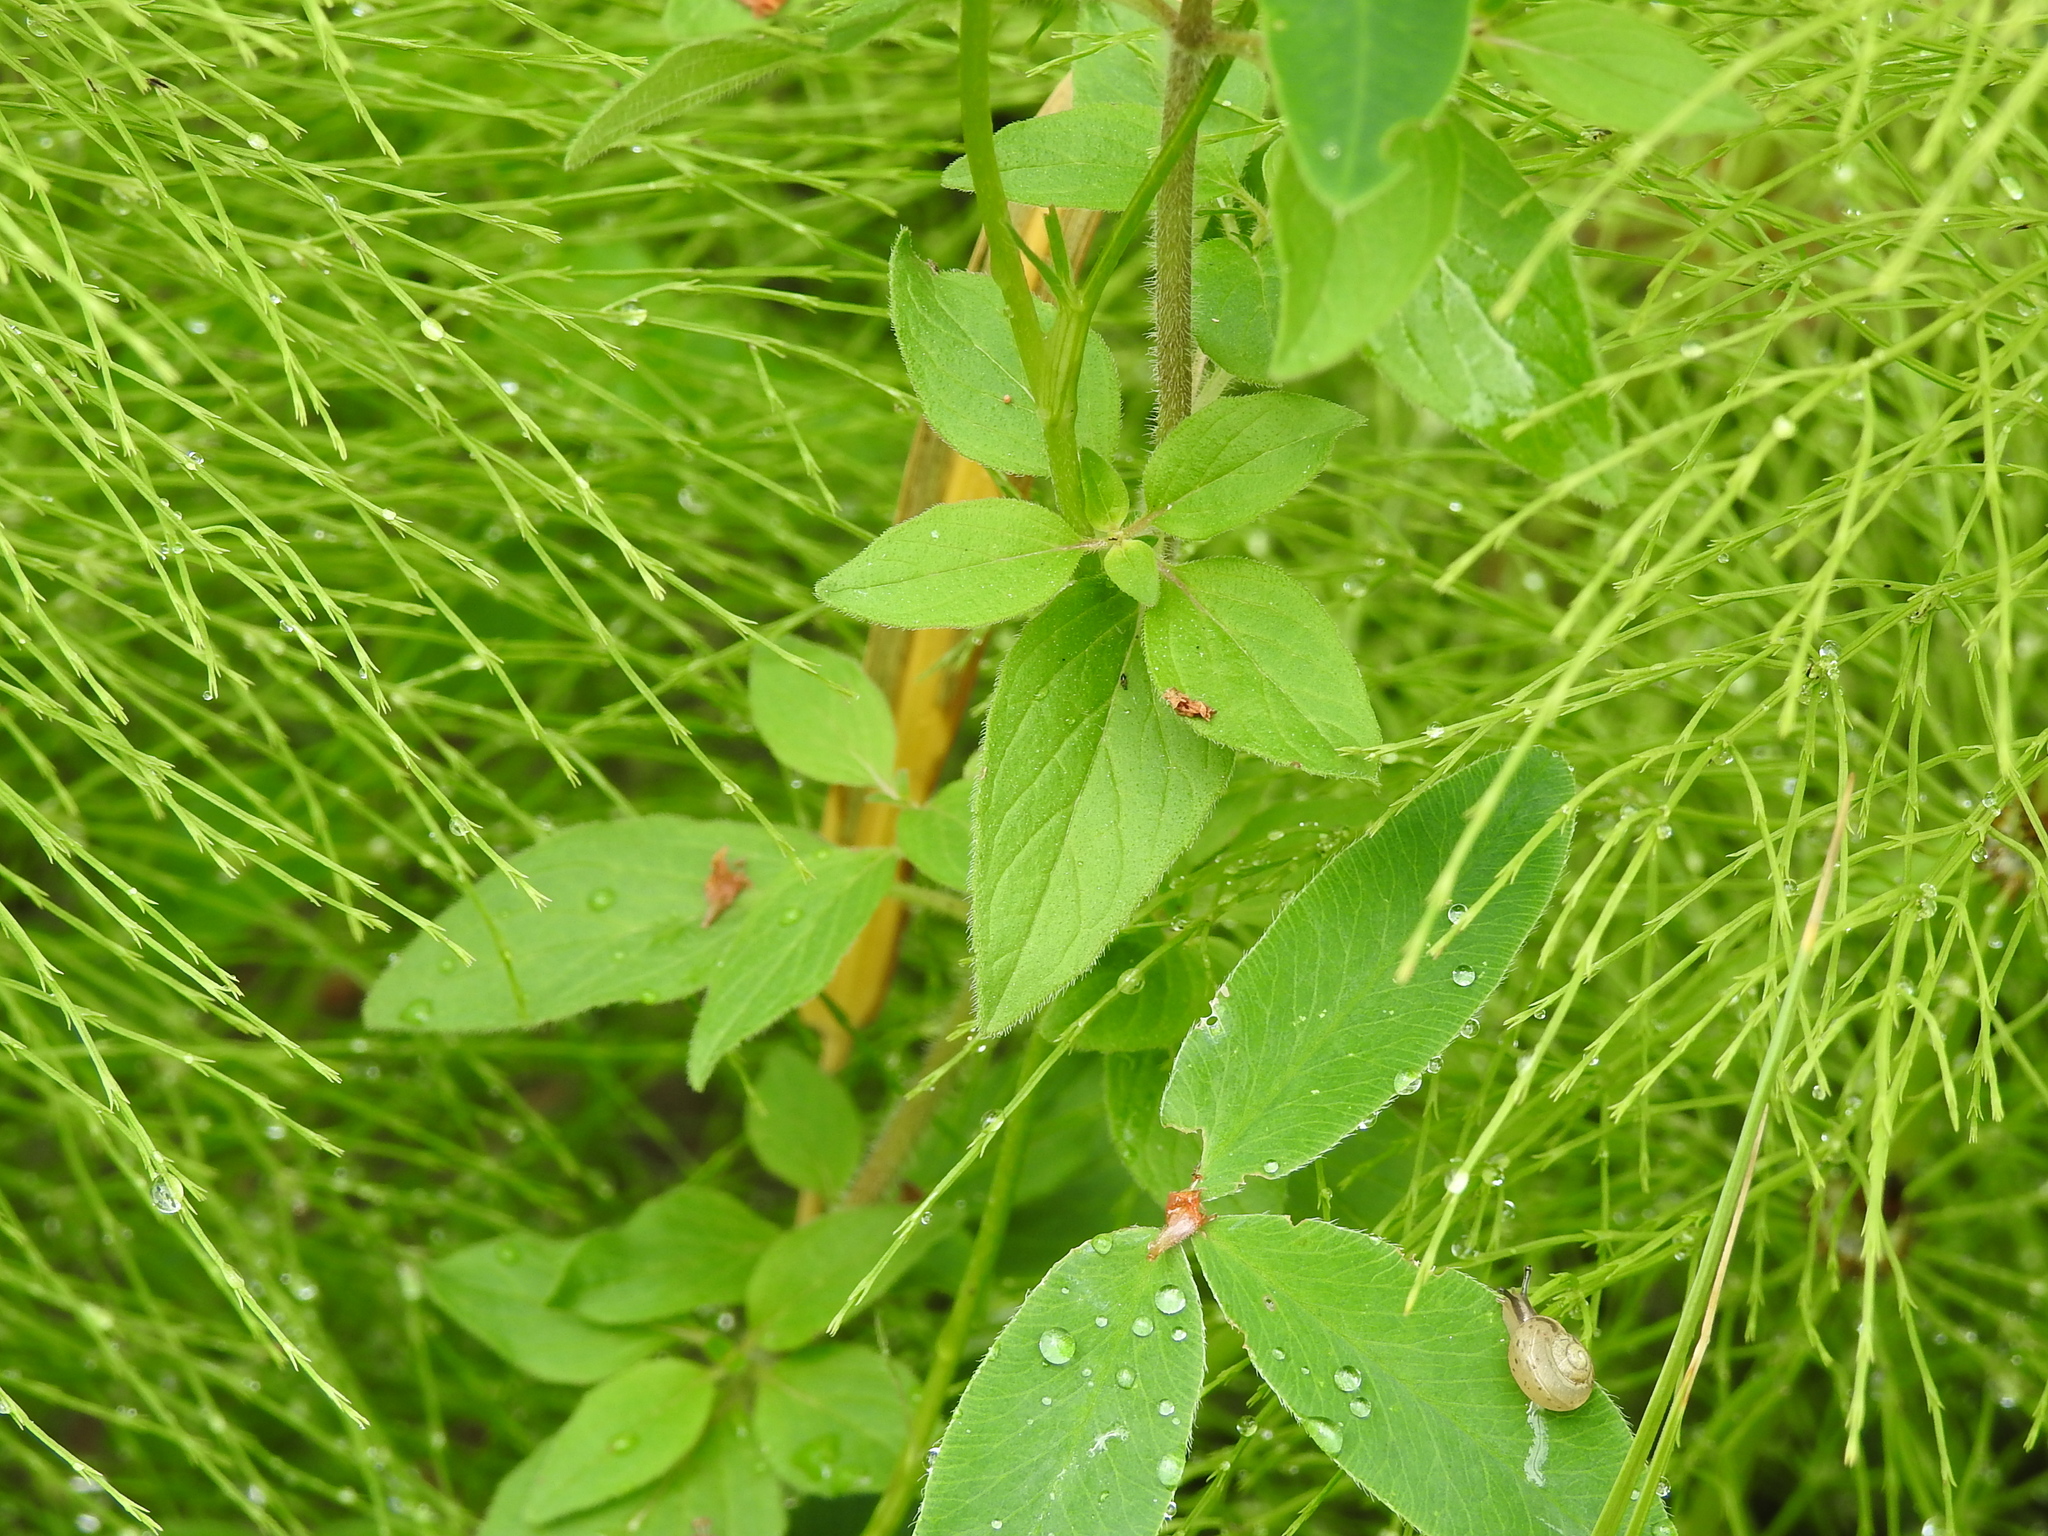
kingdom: Plantae
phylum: Tracheophyta
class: Magnoliopsida
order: Lamiales
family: Lamiaceae
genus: Origanum
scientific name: Origanum vulgare
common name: Wild marjoram
